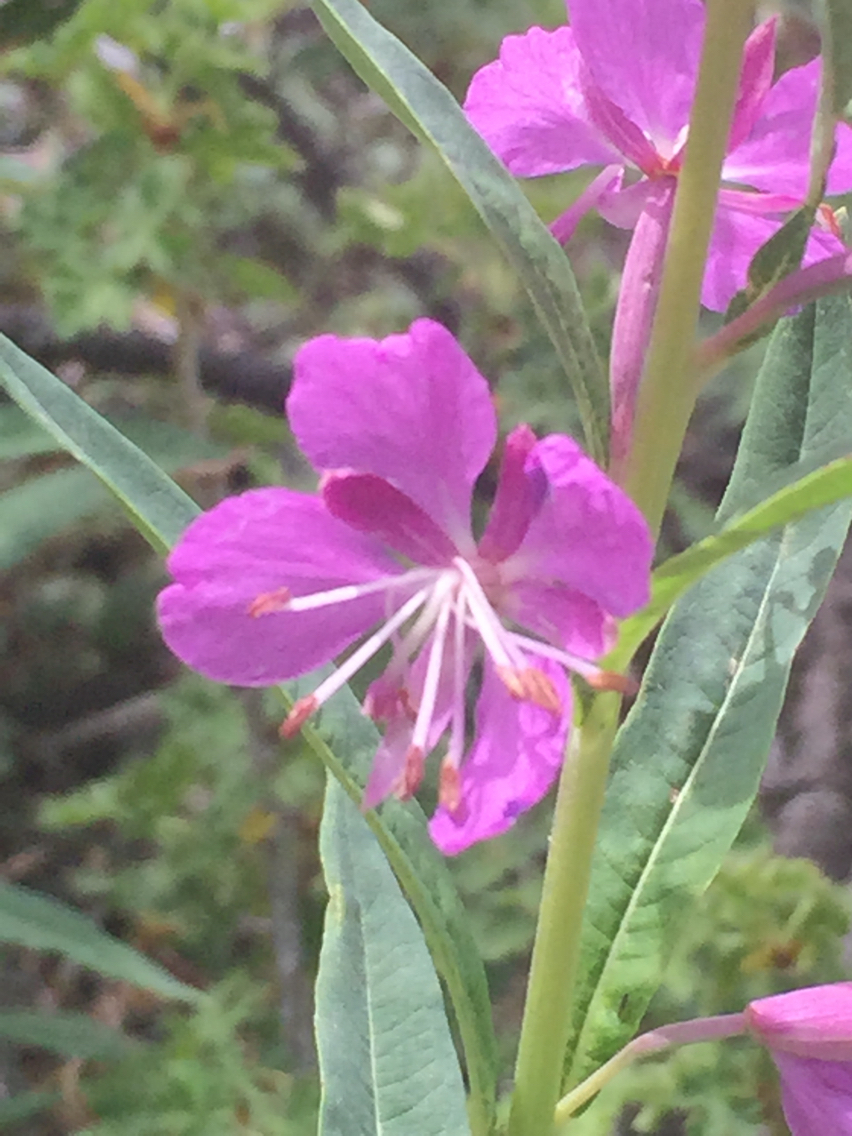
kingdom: Plantae
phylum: Tracheophyta
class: Magnoliopsida
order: Myrtales
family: Onagraceae
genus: Chamaenerion
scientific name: Chamaenerion angustifolium
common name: Fireweed
